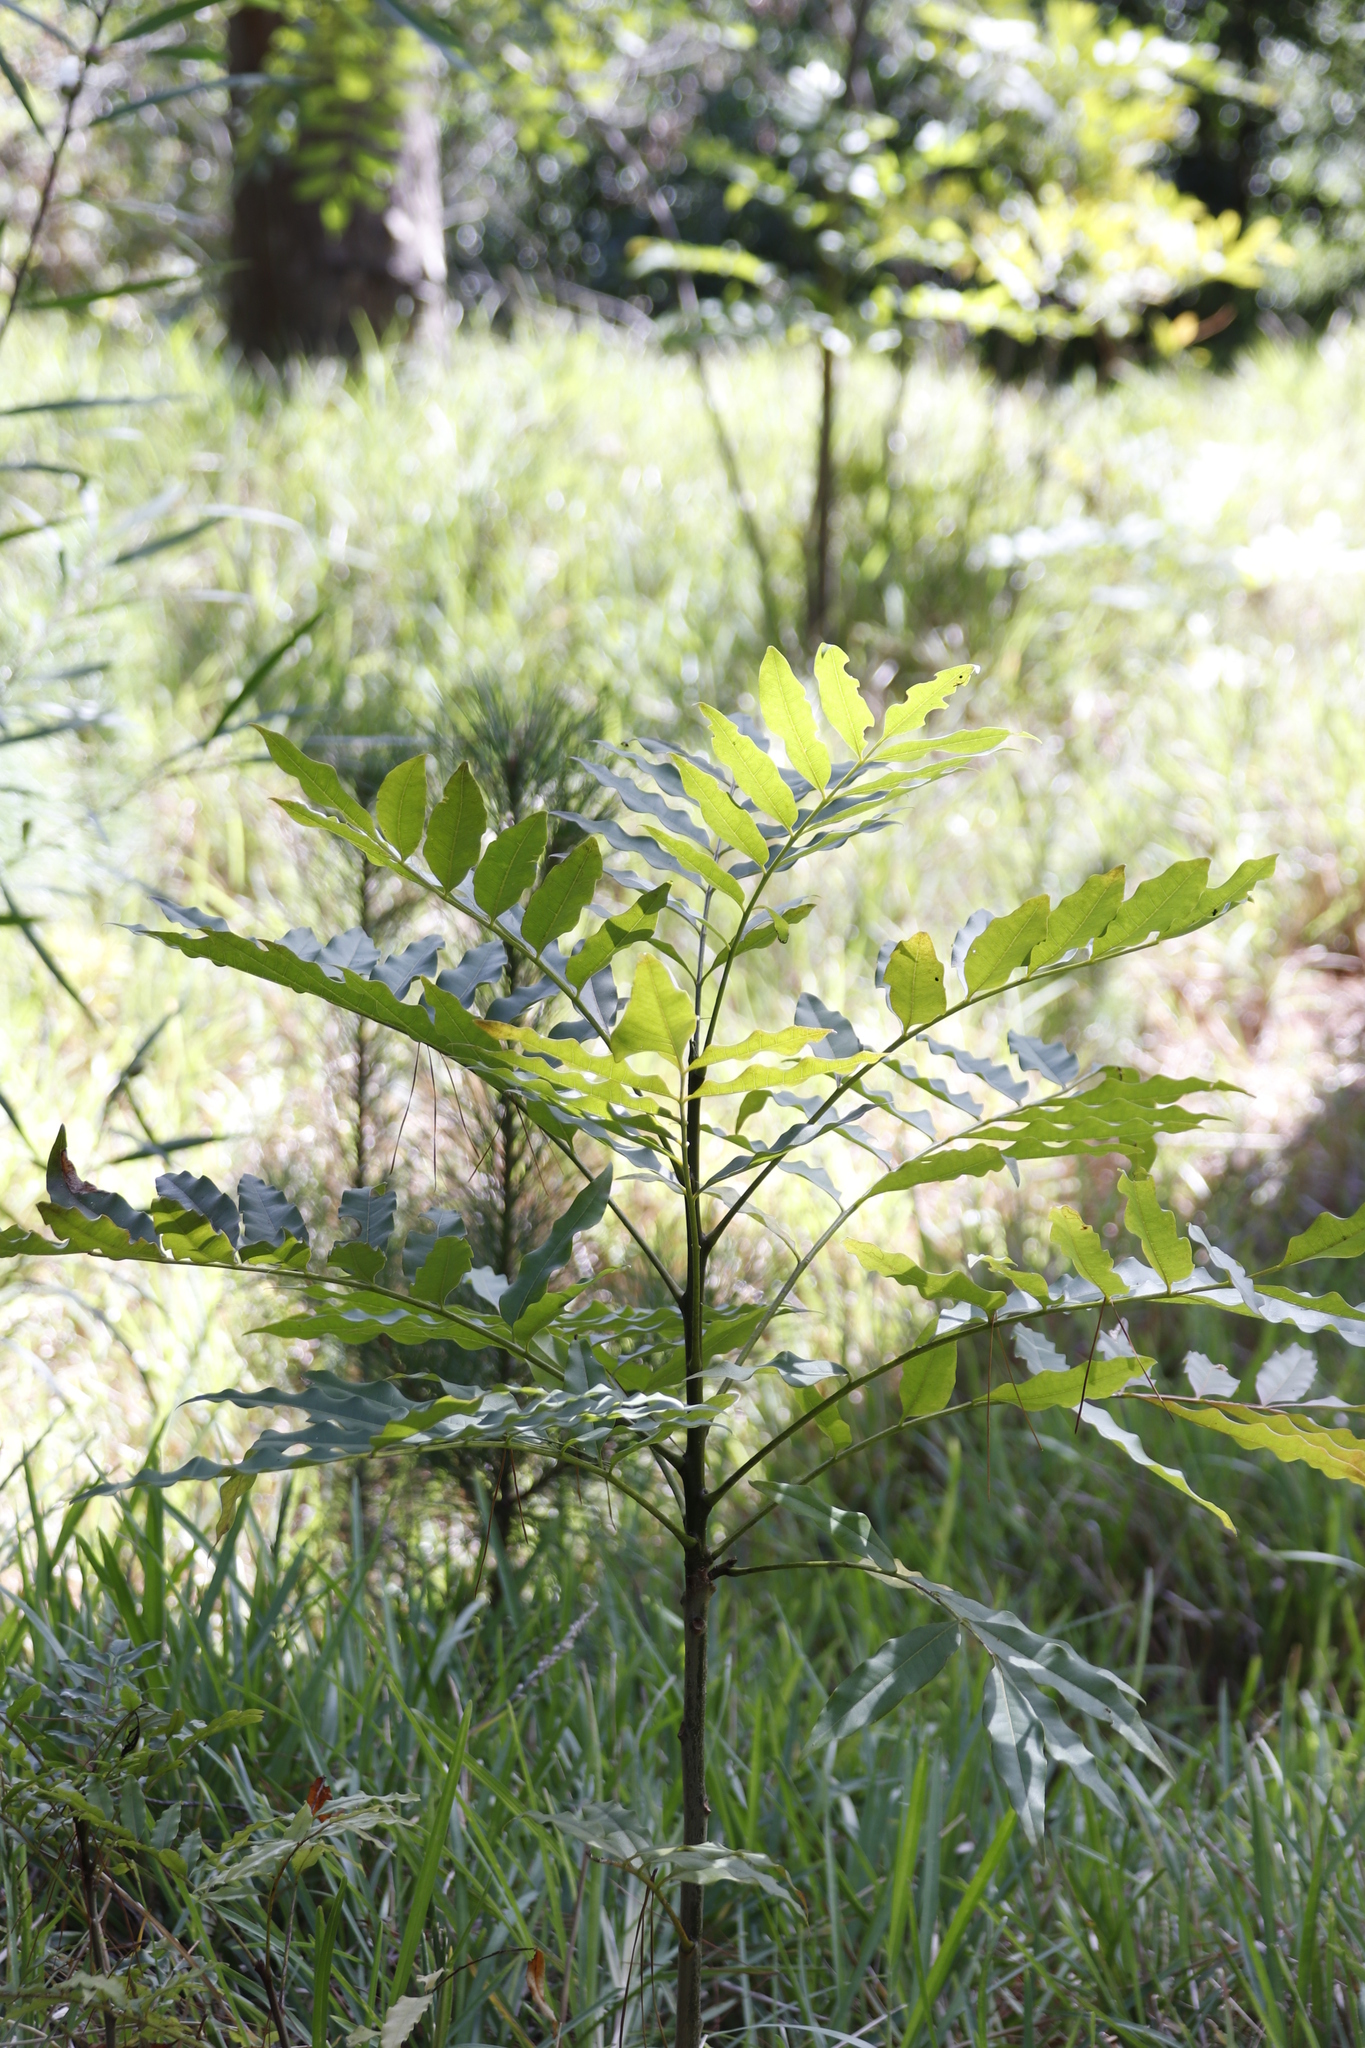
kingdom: Plantae
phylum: Tracheophyta
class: Magnoliopsida
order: Sapindales
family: Meliaceae
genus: Ekebergia
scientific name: Ekebergia capensis
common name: Cape-ash
